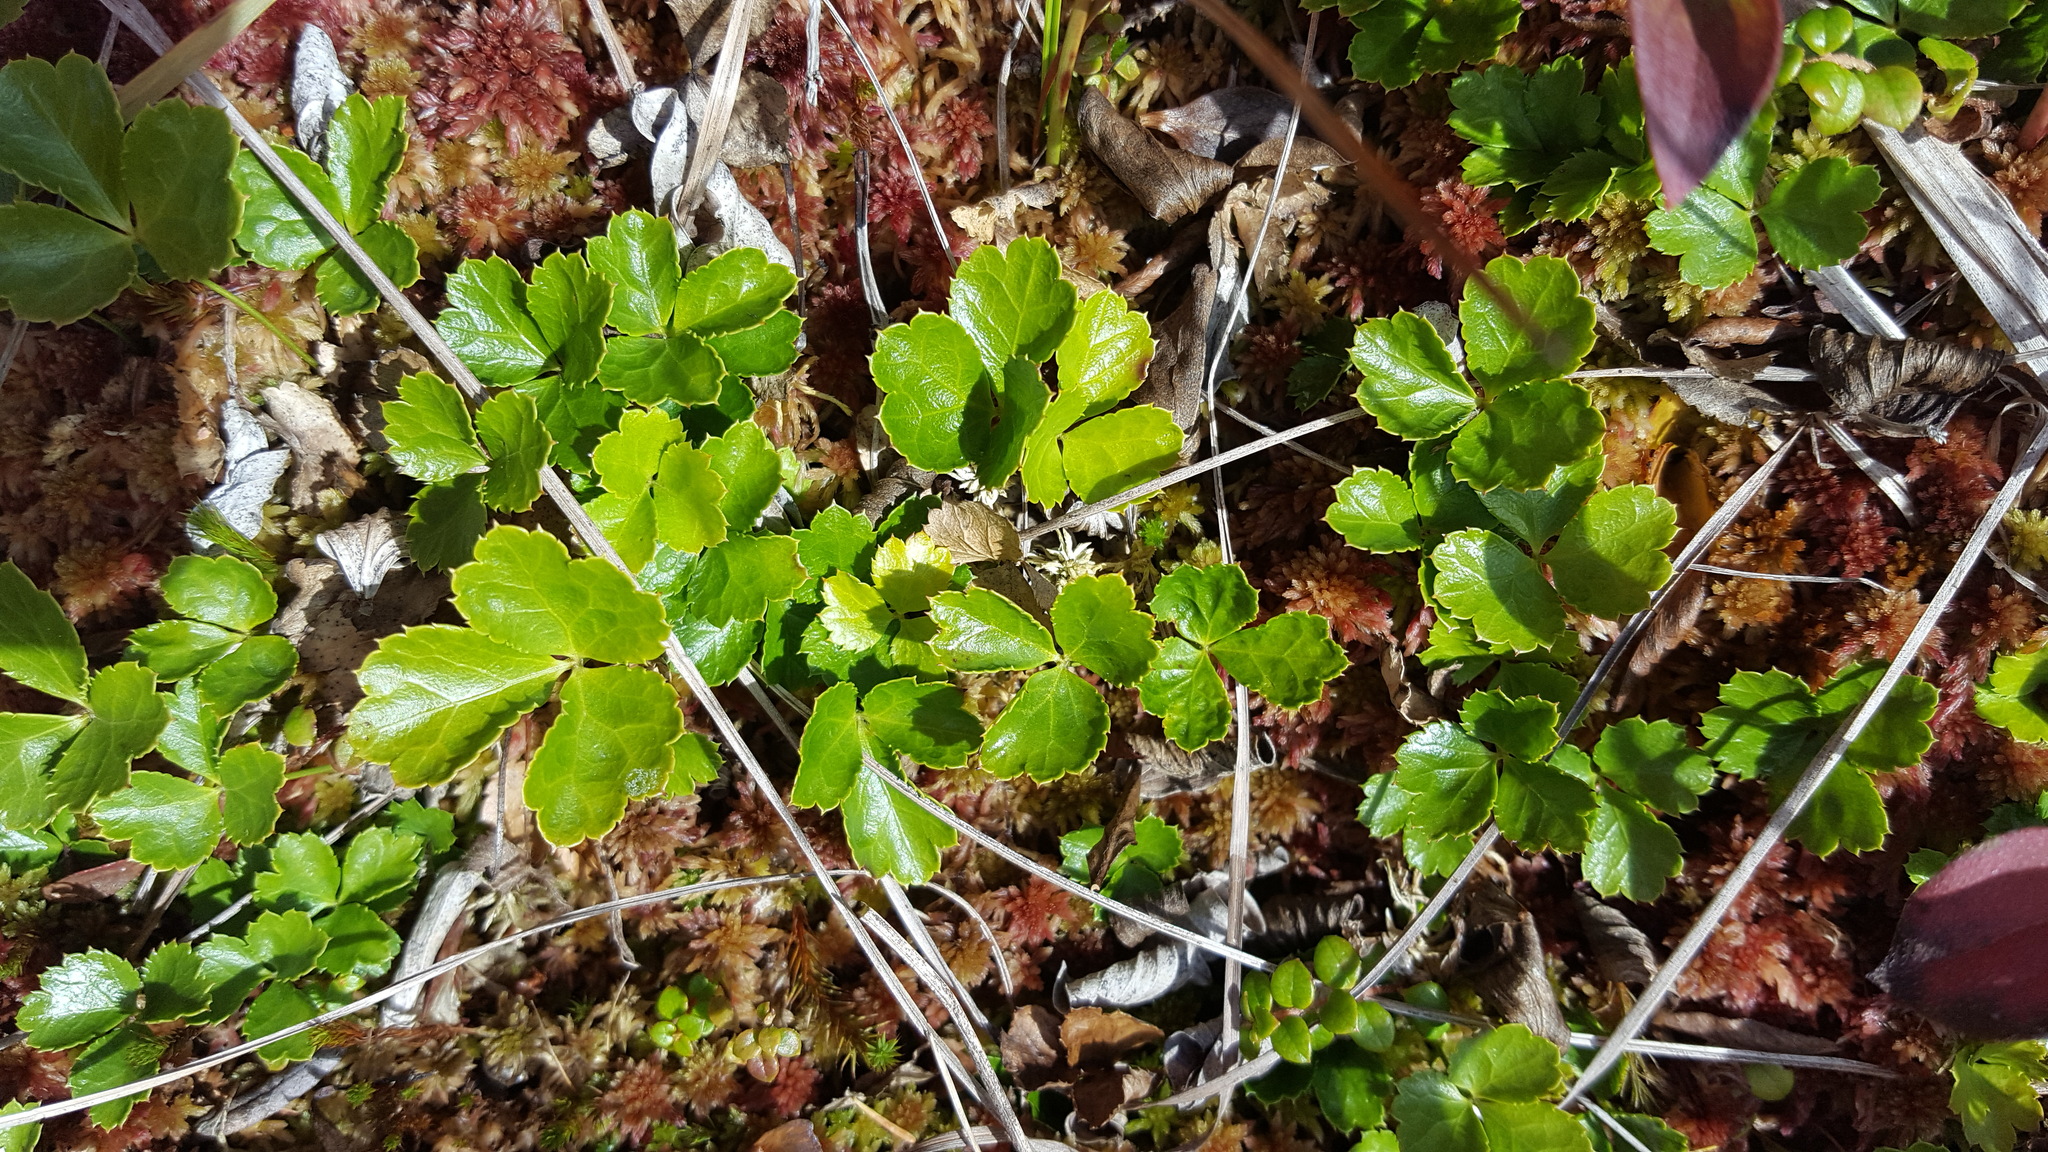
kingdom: Plantae
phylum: Tracheophyta
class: Magnoliopsida
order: Ranunculales
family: Ranunculaceae
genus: Coptis
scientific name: Coptis trifolia
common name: Canker-root
